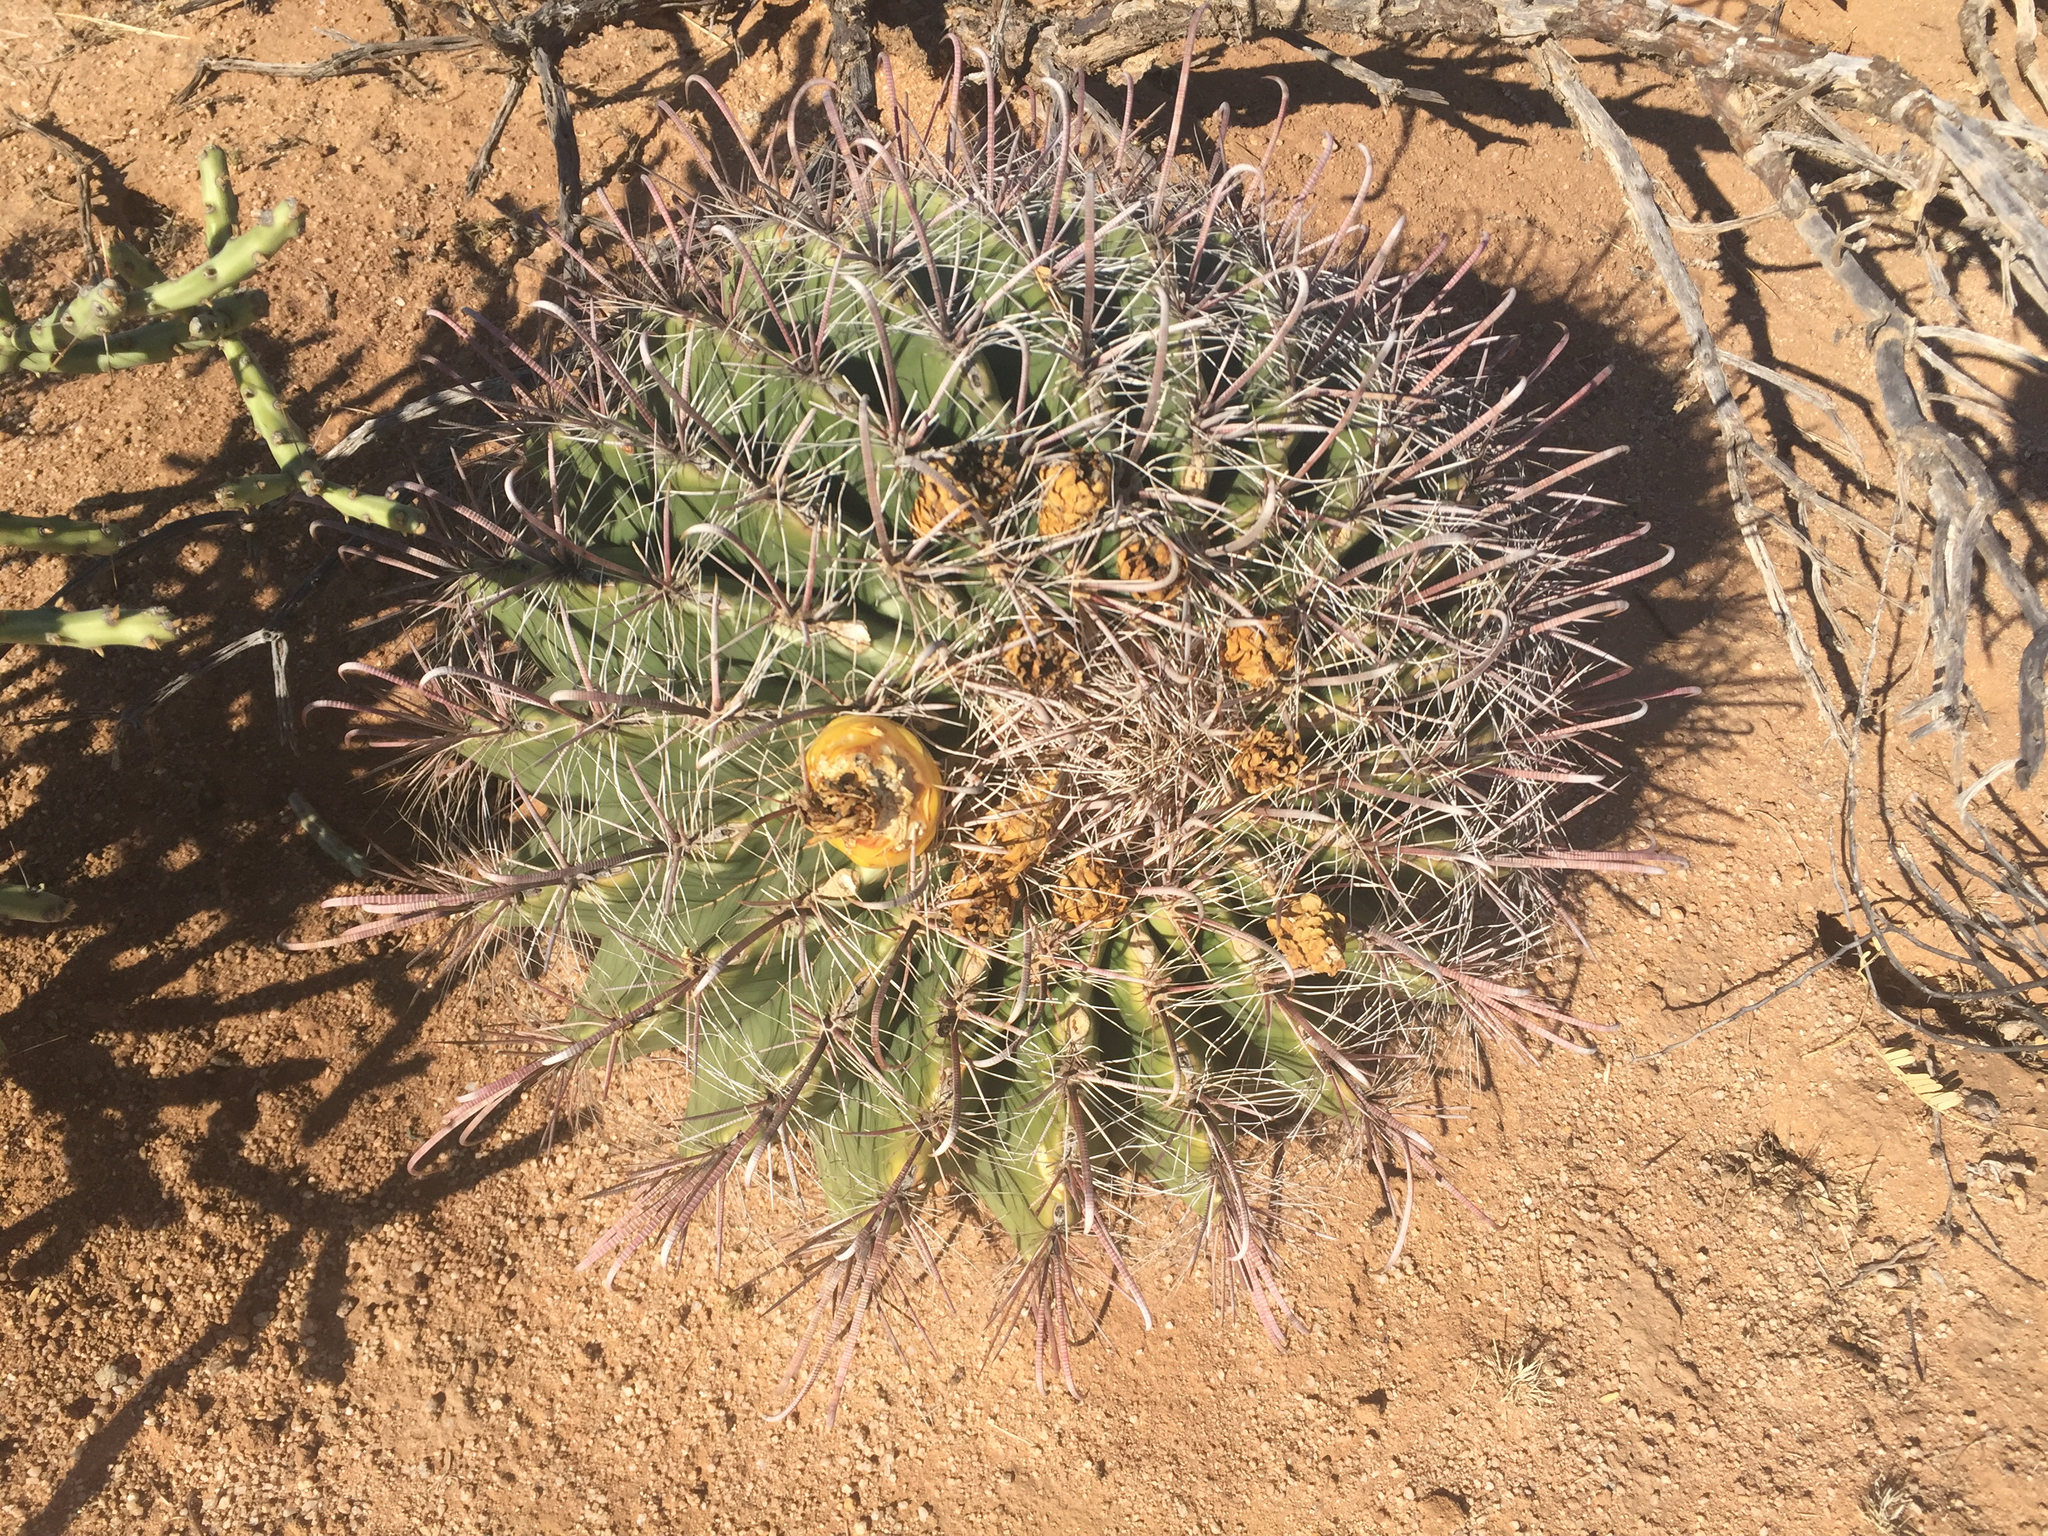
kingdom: Plantae
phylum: Tracheophyta
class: Magnoliopsida
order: Caryophyllales
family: Cactaceae
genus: Ferocactus
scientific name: Ferocactus wislizeni
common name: Candy barrel cactus
